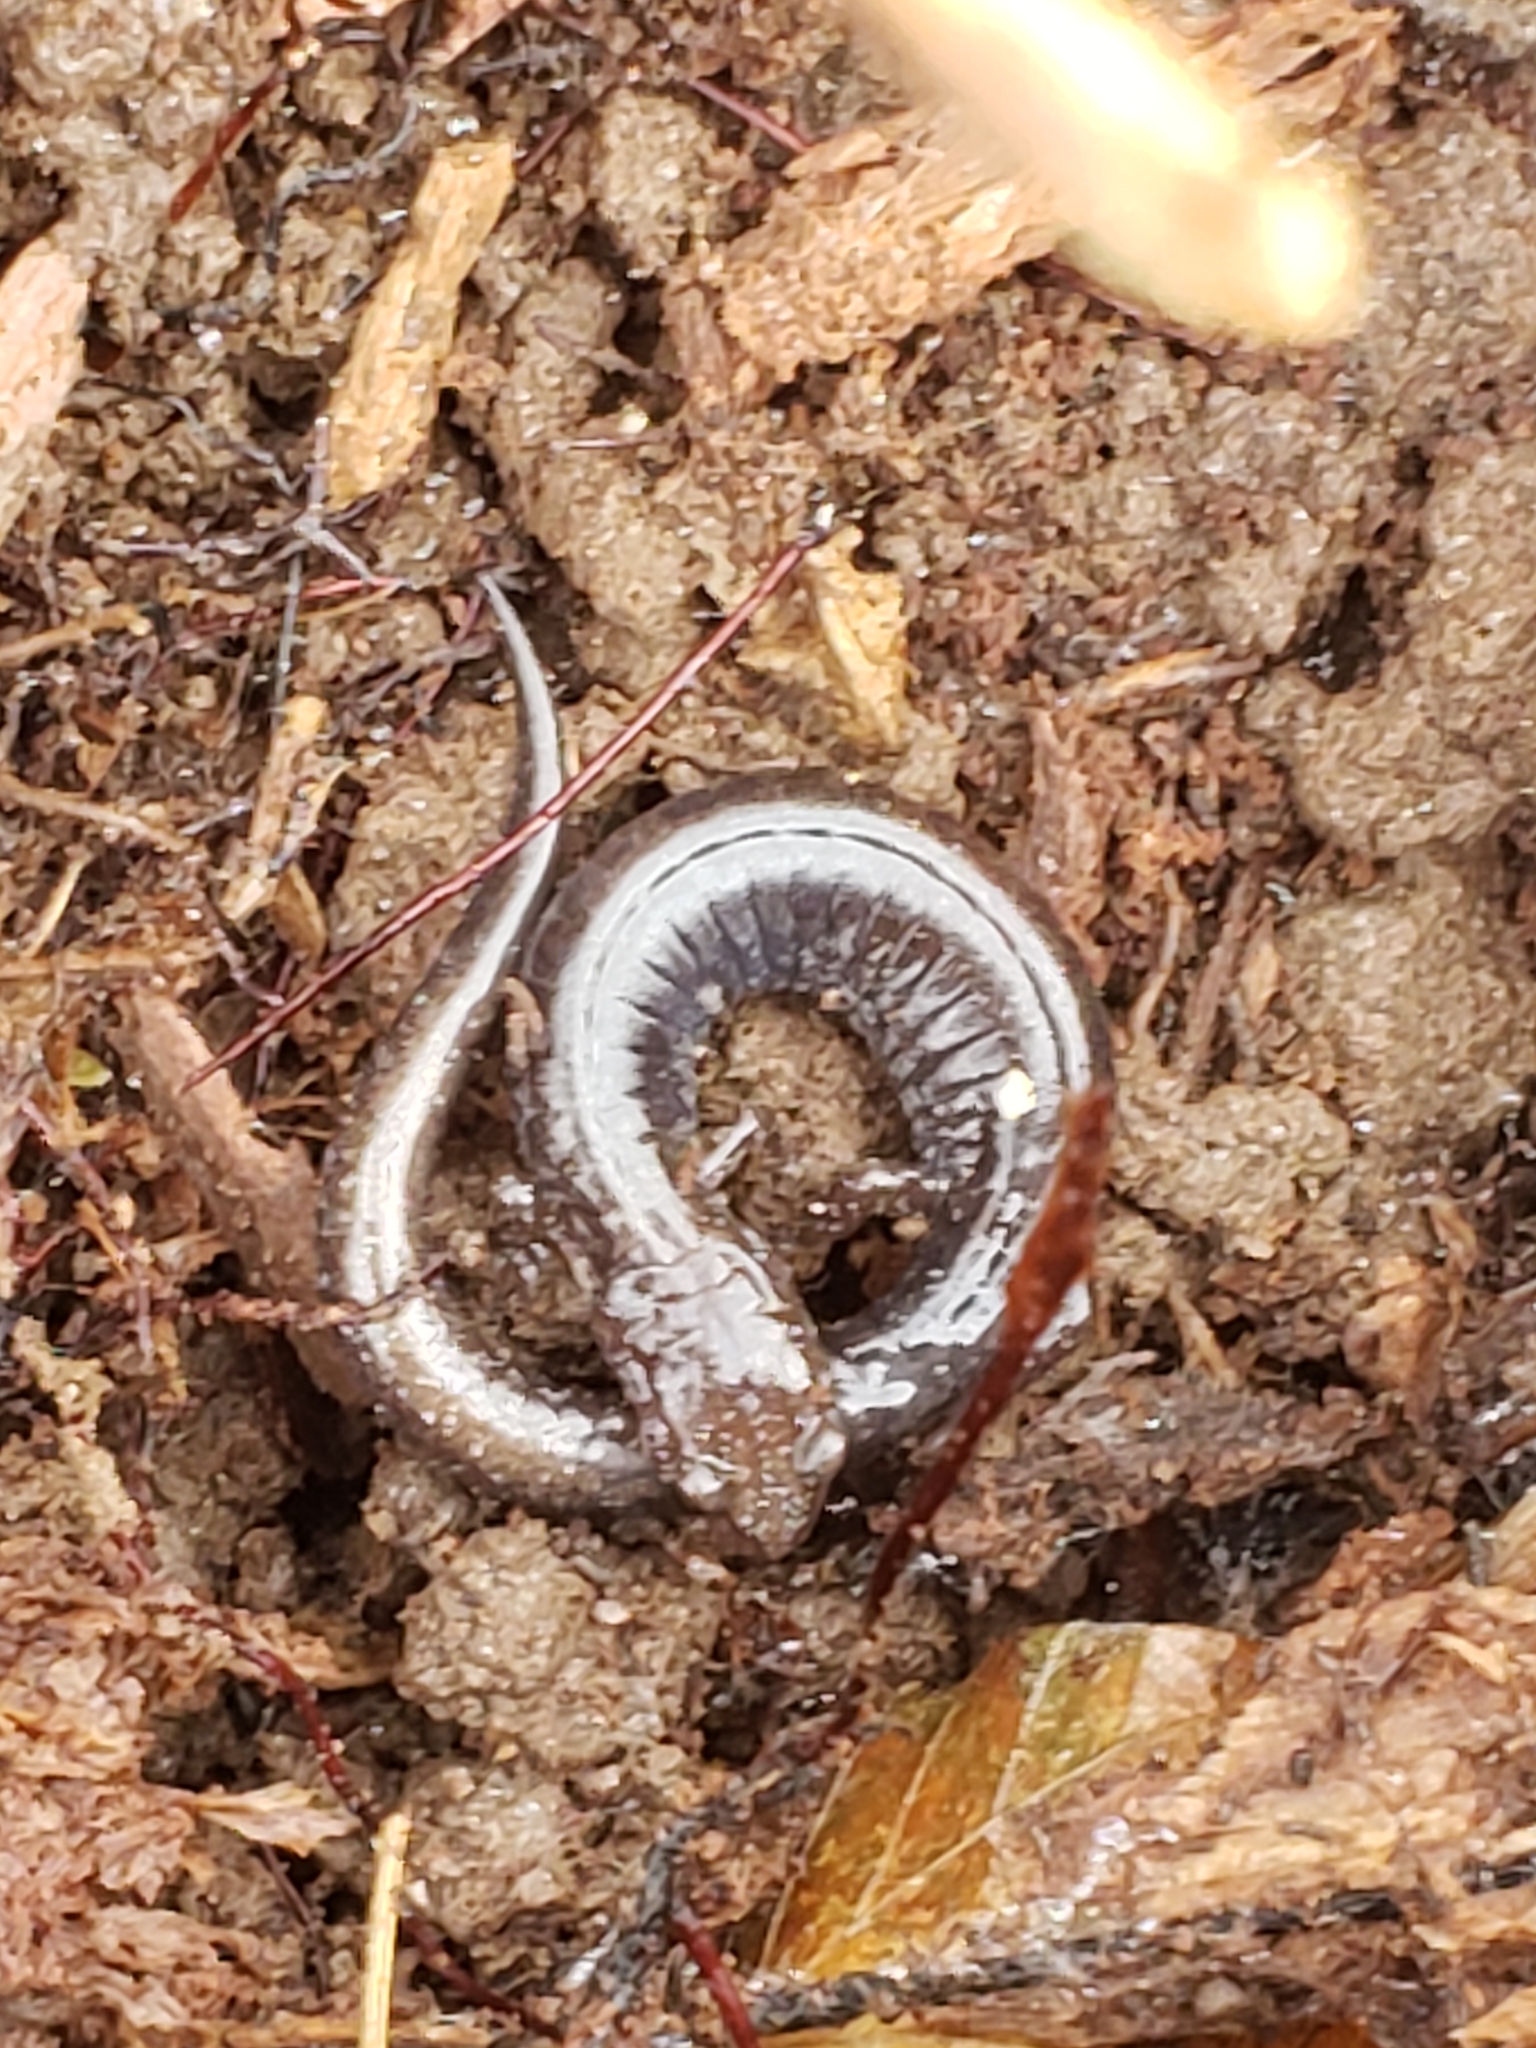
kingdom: Animalia
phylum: Chordata
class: Amphibia
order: Caudata
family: Plethodontidae
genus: Plethodon
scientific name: Plethodon cinereus
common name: Redback salamander
